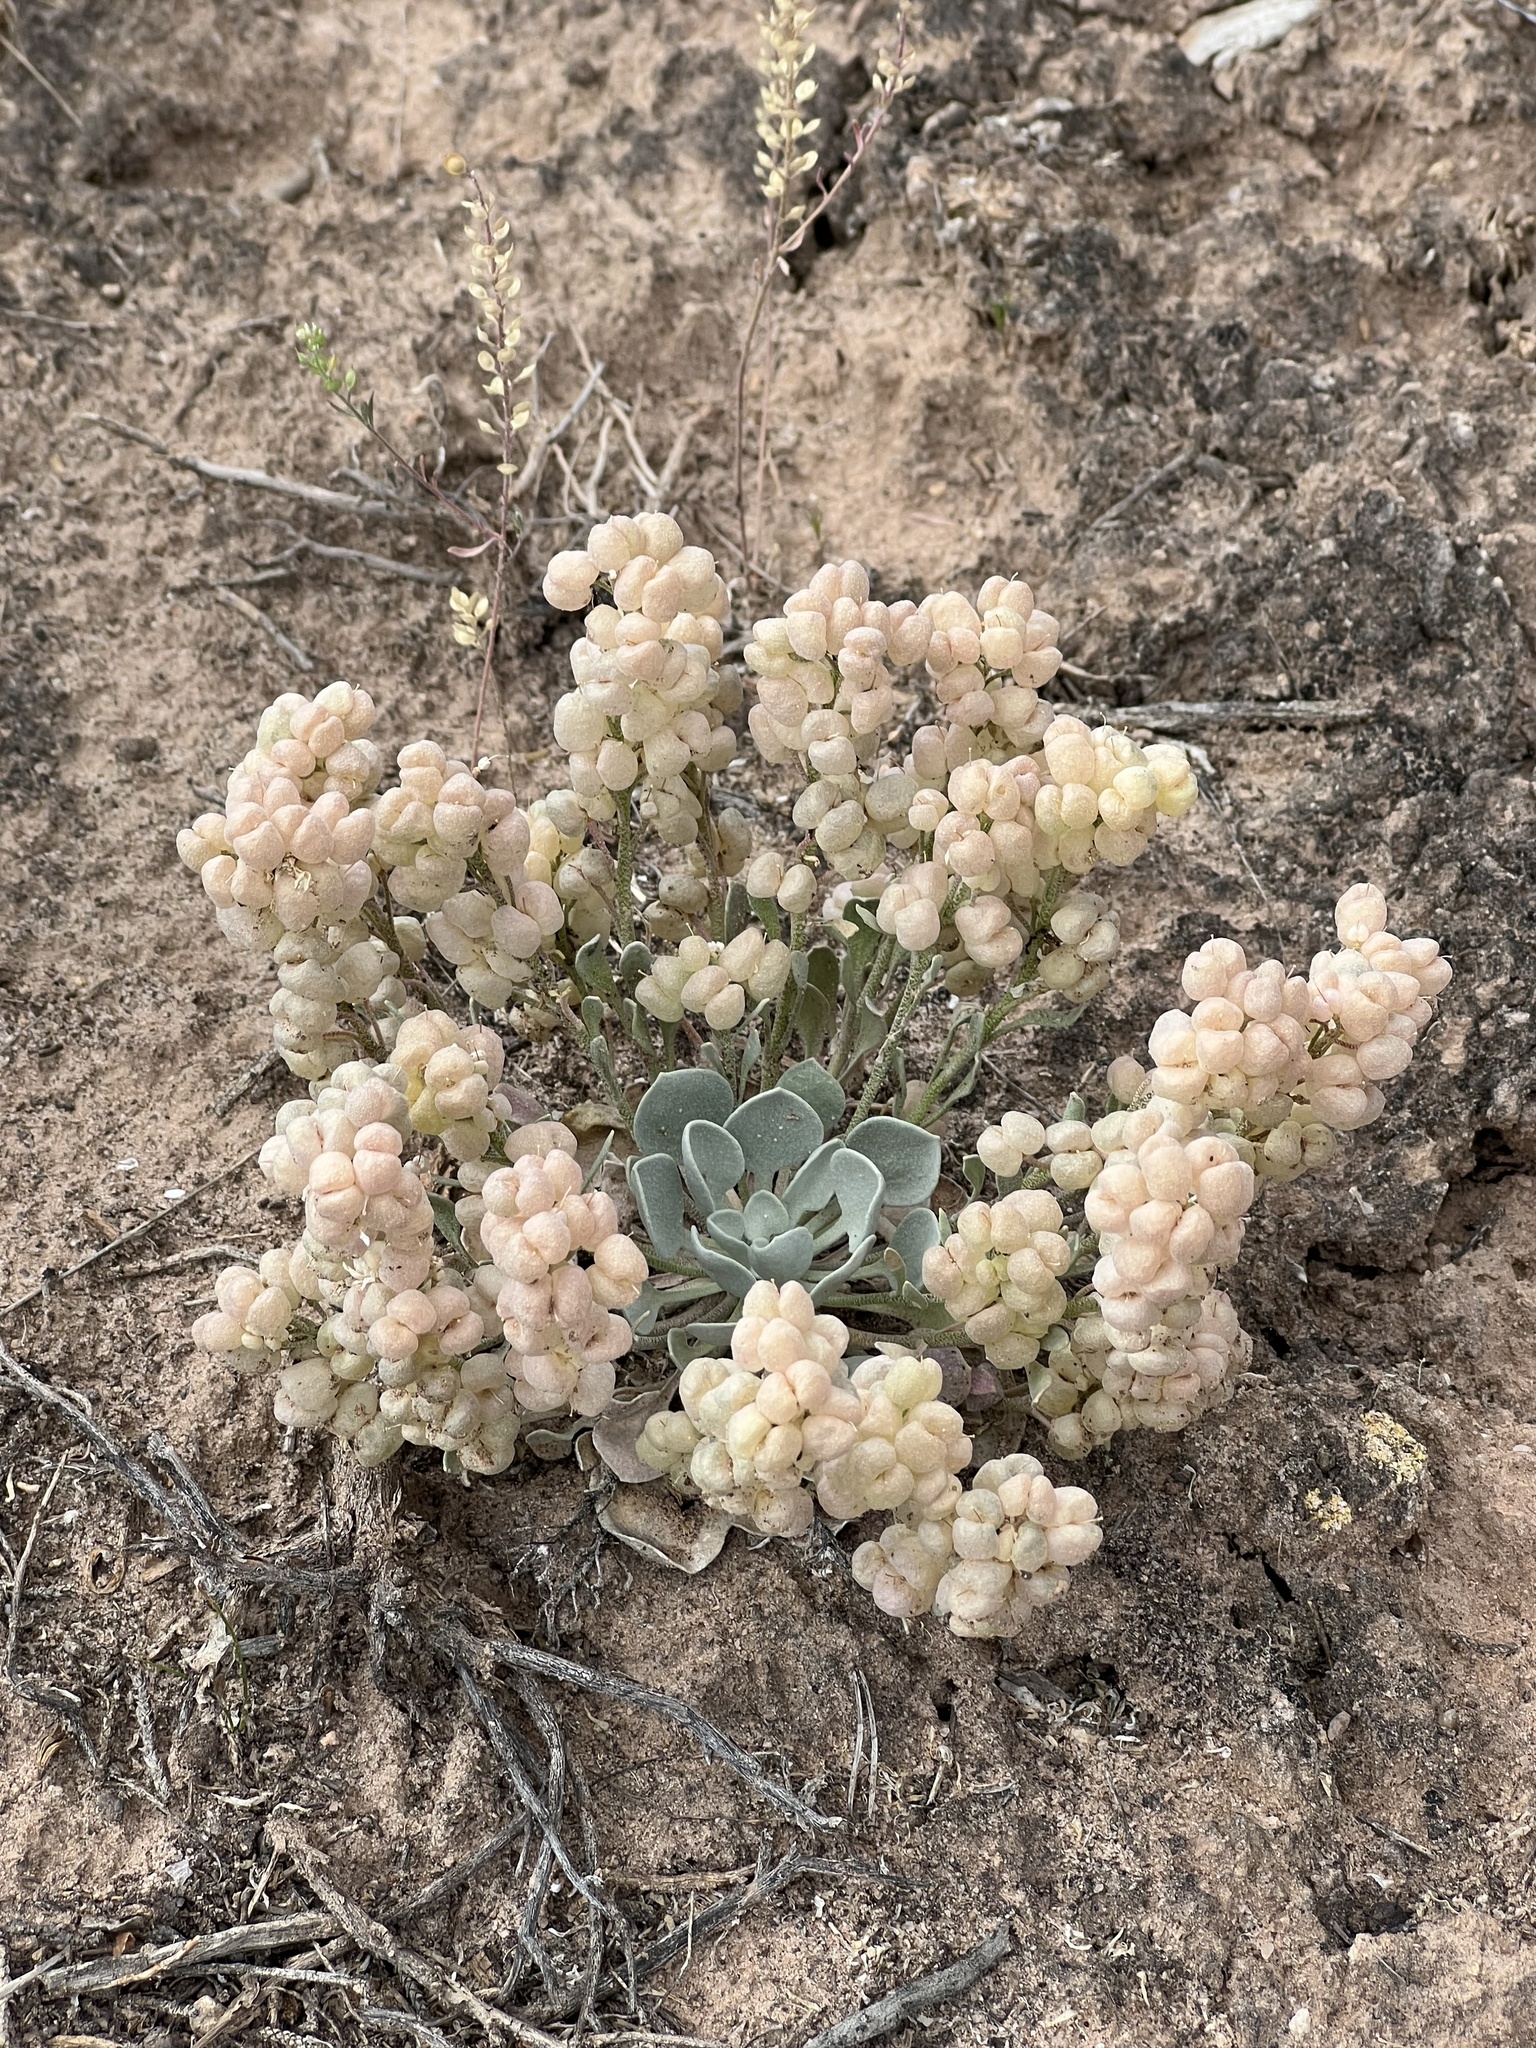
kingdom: Plantae
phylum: Tracheophyta
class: Magnoliopsida
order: Brassicales
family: Brassicaceae
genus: Physaria
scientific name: Physaria acutifolia
